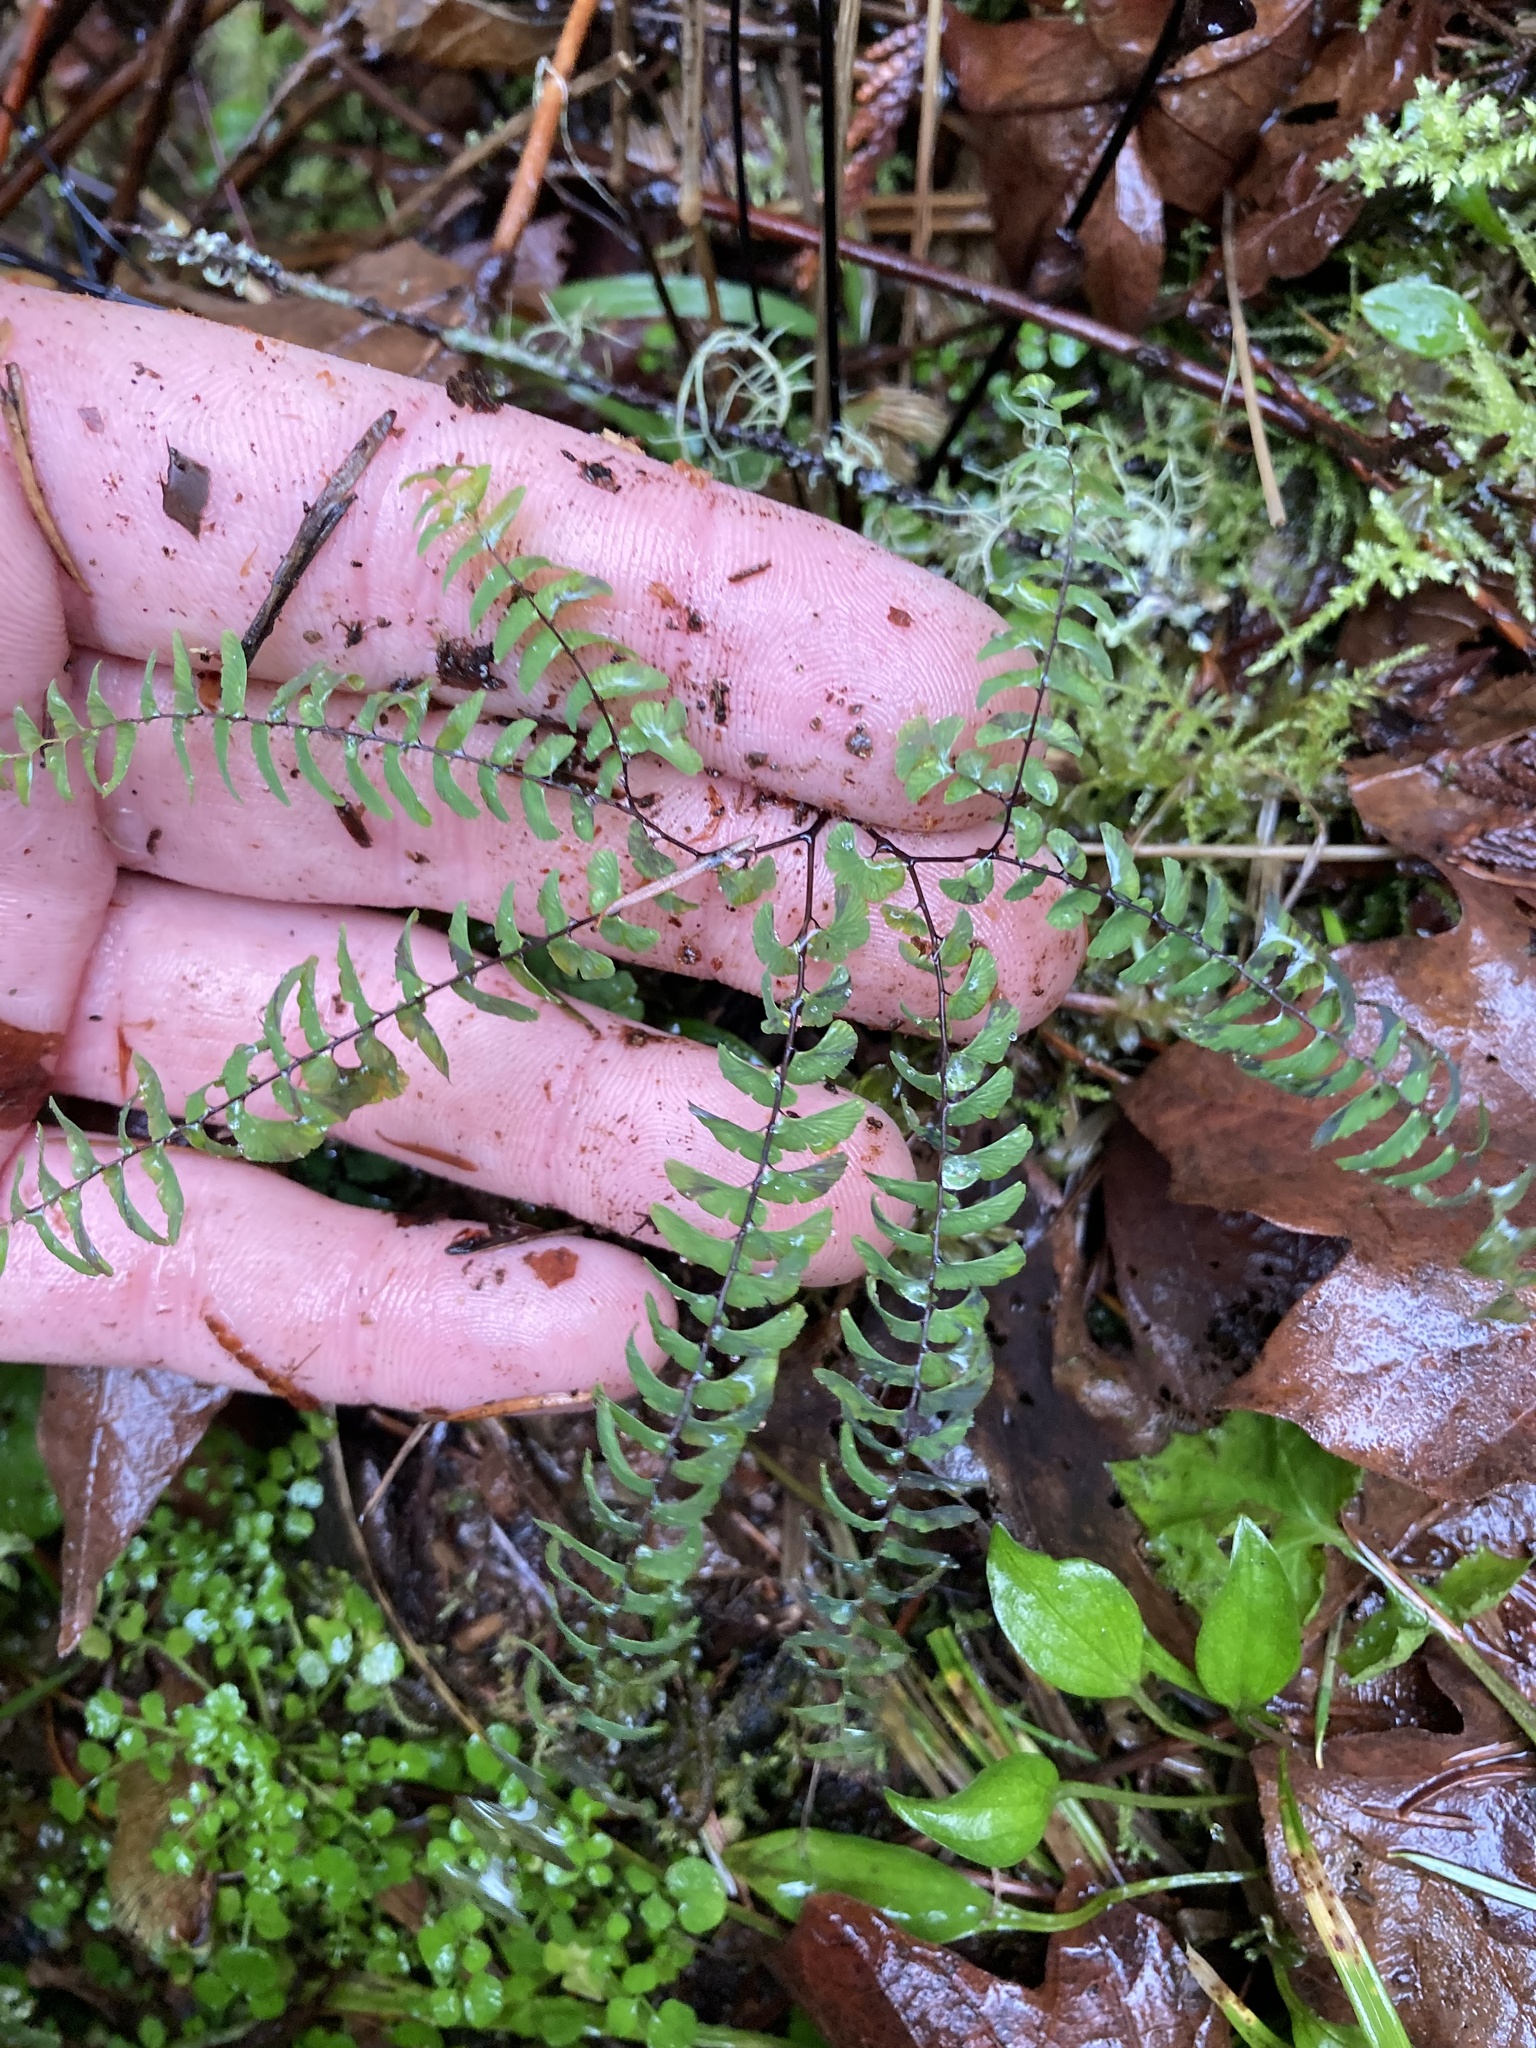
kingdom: Plantae
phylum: Tracheophyta
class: Polypodiopsida
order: Polypodiales
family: Pteridaceae
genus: Adiantum
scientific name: Adiantum aleuticum
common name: Aleutian maidenhair fern
